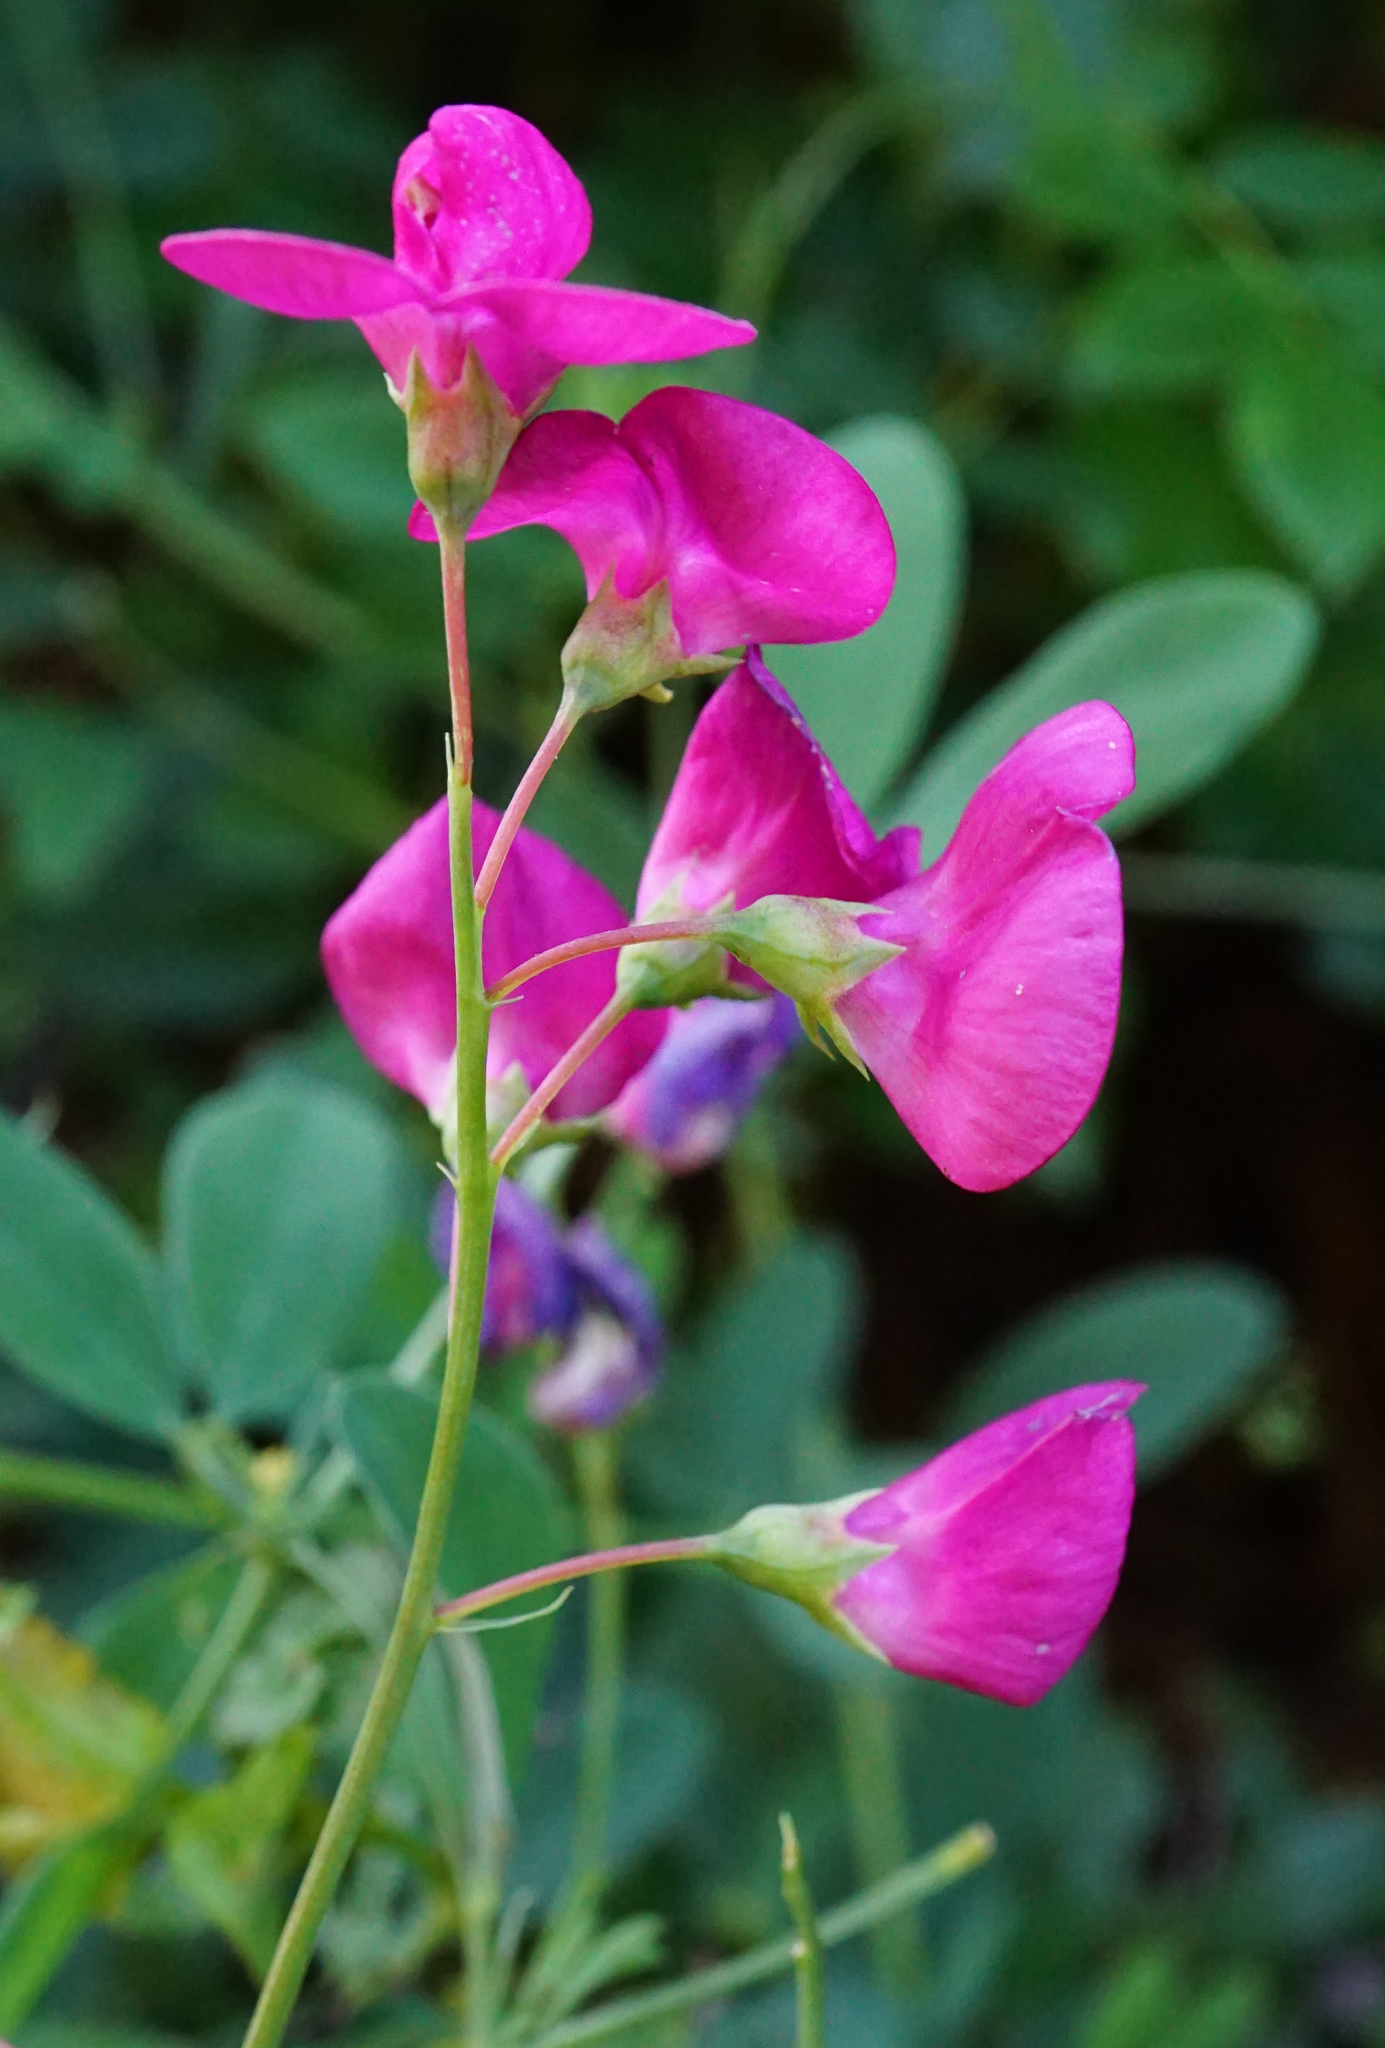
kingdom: Plantae
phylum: Tracheophyta
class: Magnoliopsida
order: Fabales
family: Fabaceae
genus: Lathyrus
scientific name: Lathyrus tuberosus
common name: Tuberous pea
